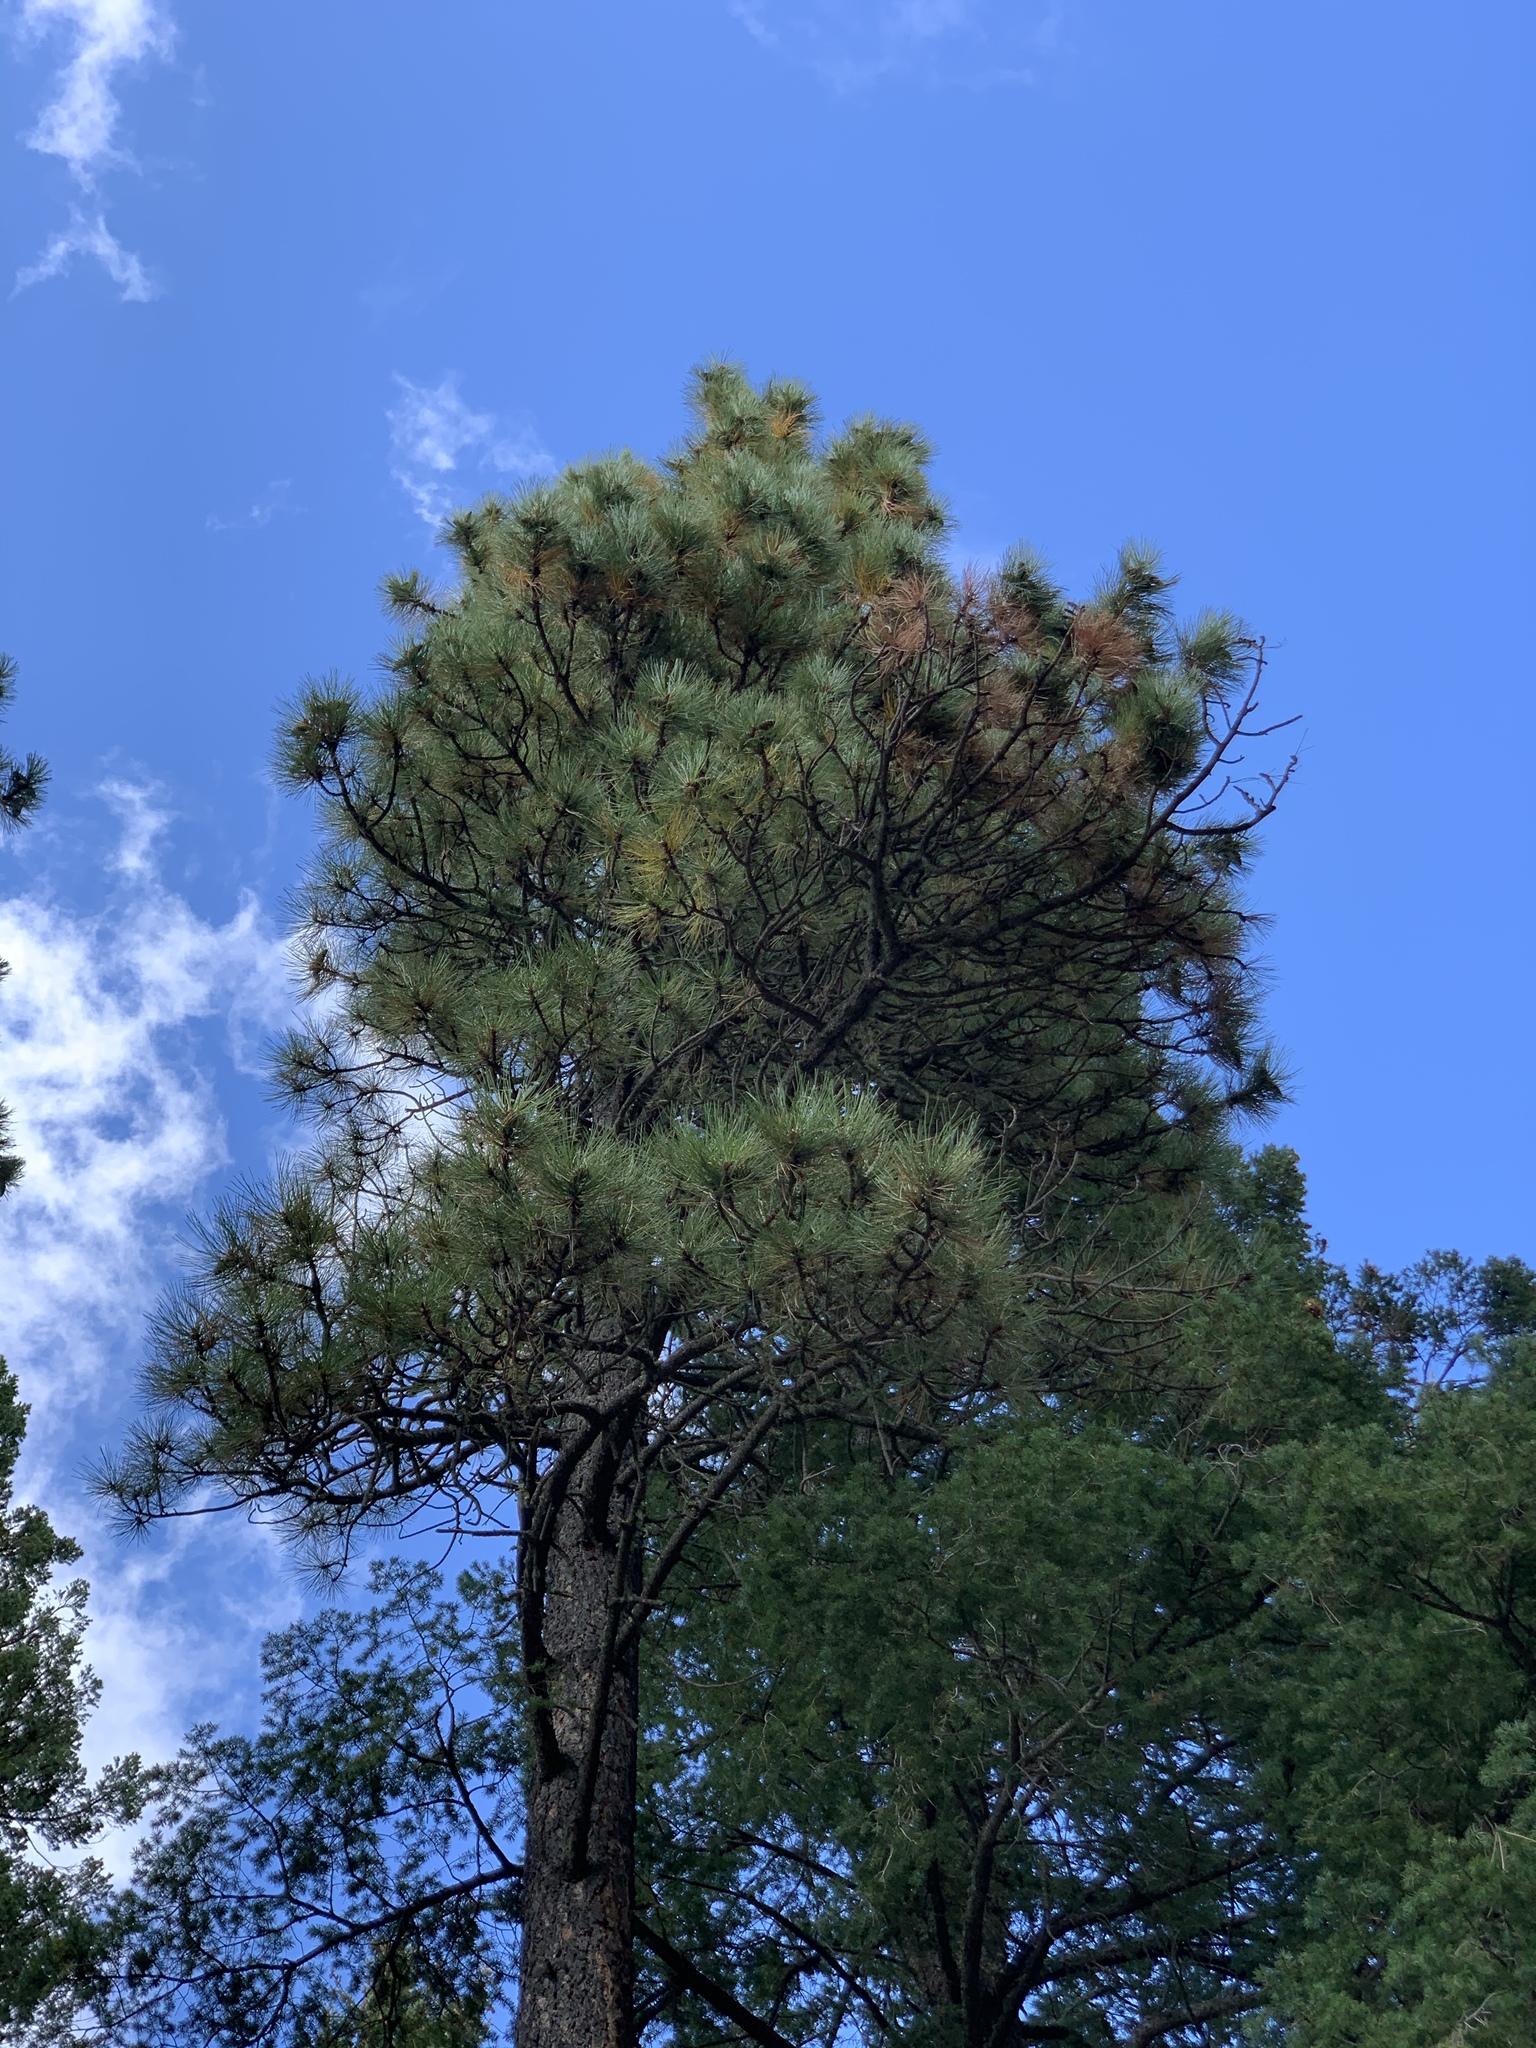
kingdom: Plantae
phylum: Tracheophyta
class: Pinopsida
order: Pinales
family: Pinaceae
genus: Pinus
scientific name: Pinus ponderosa
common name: Western yellow-pine
